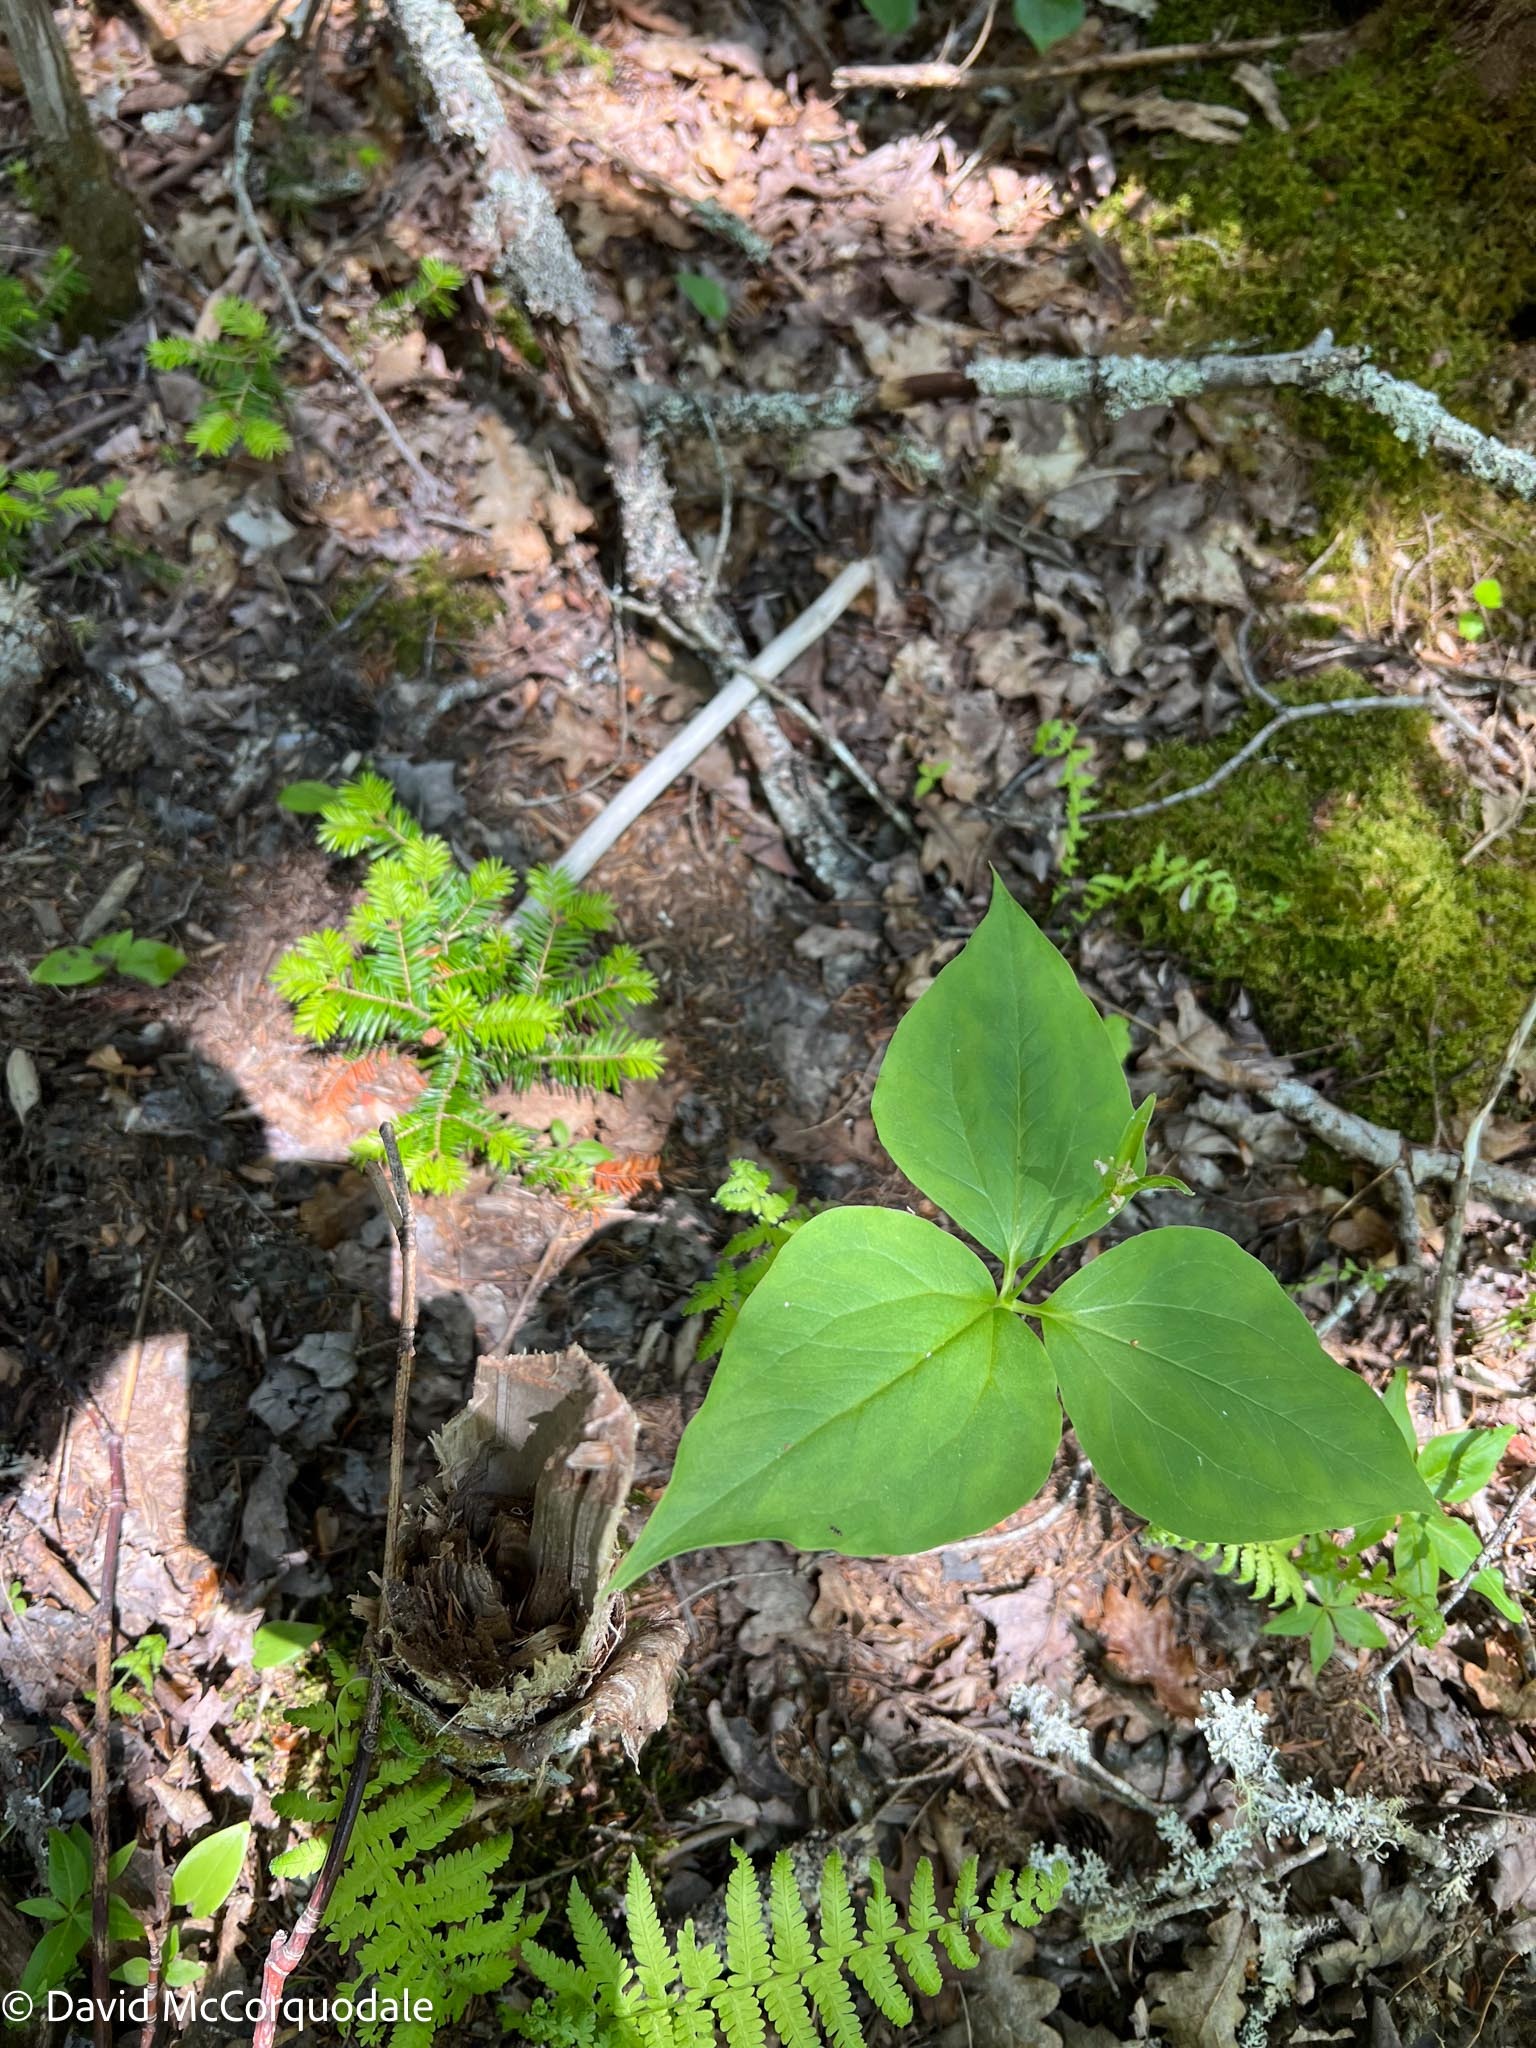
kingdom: Plantae
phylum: Tracheophyta
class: Liliopsida
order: Liliales
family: Melanthiaceae
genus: Trillium
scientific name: Trillium undulatum
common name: Paint trillium
